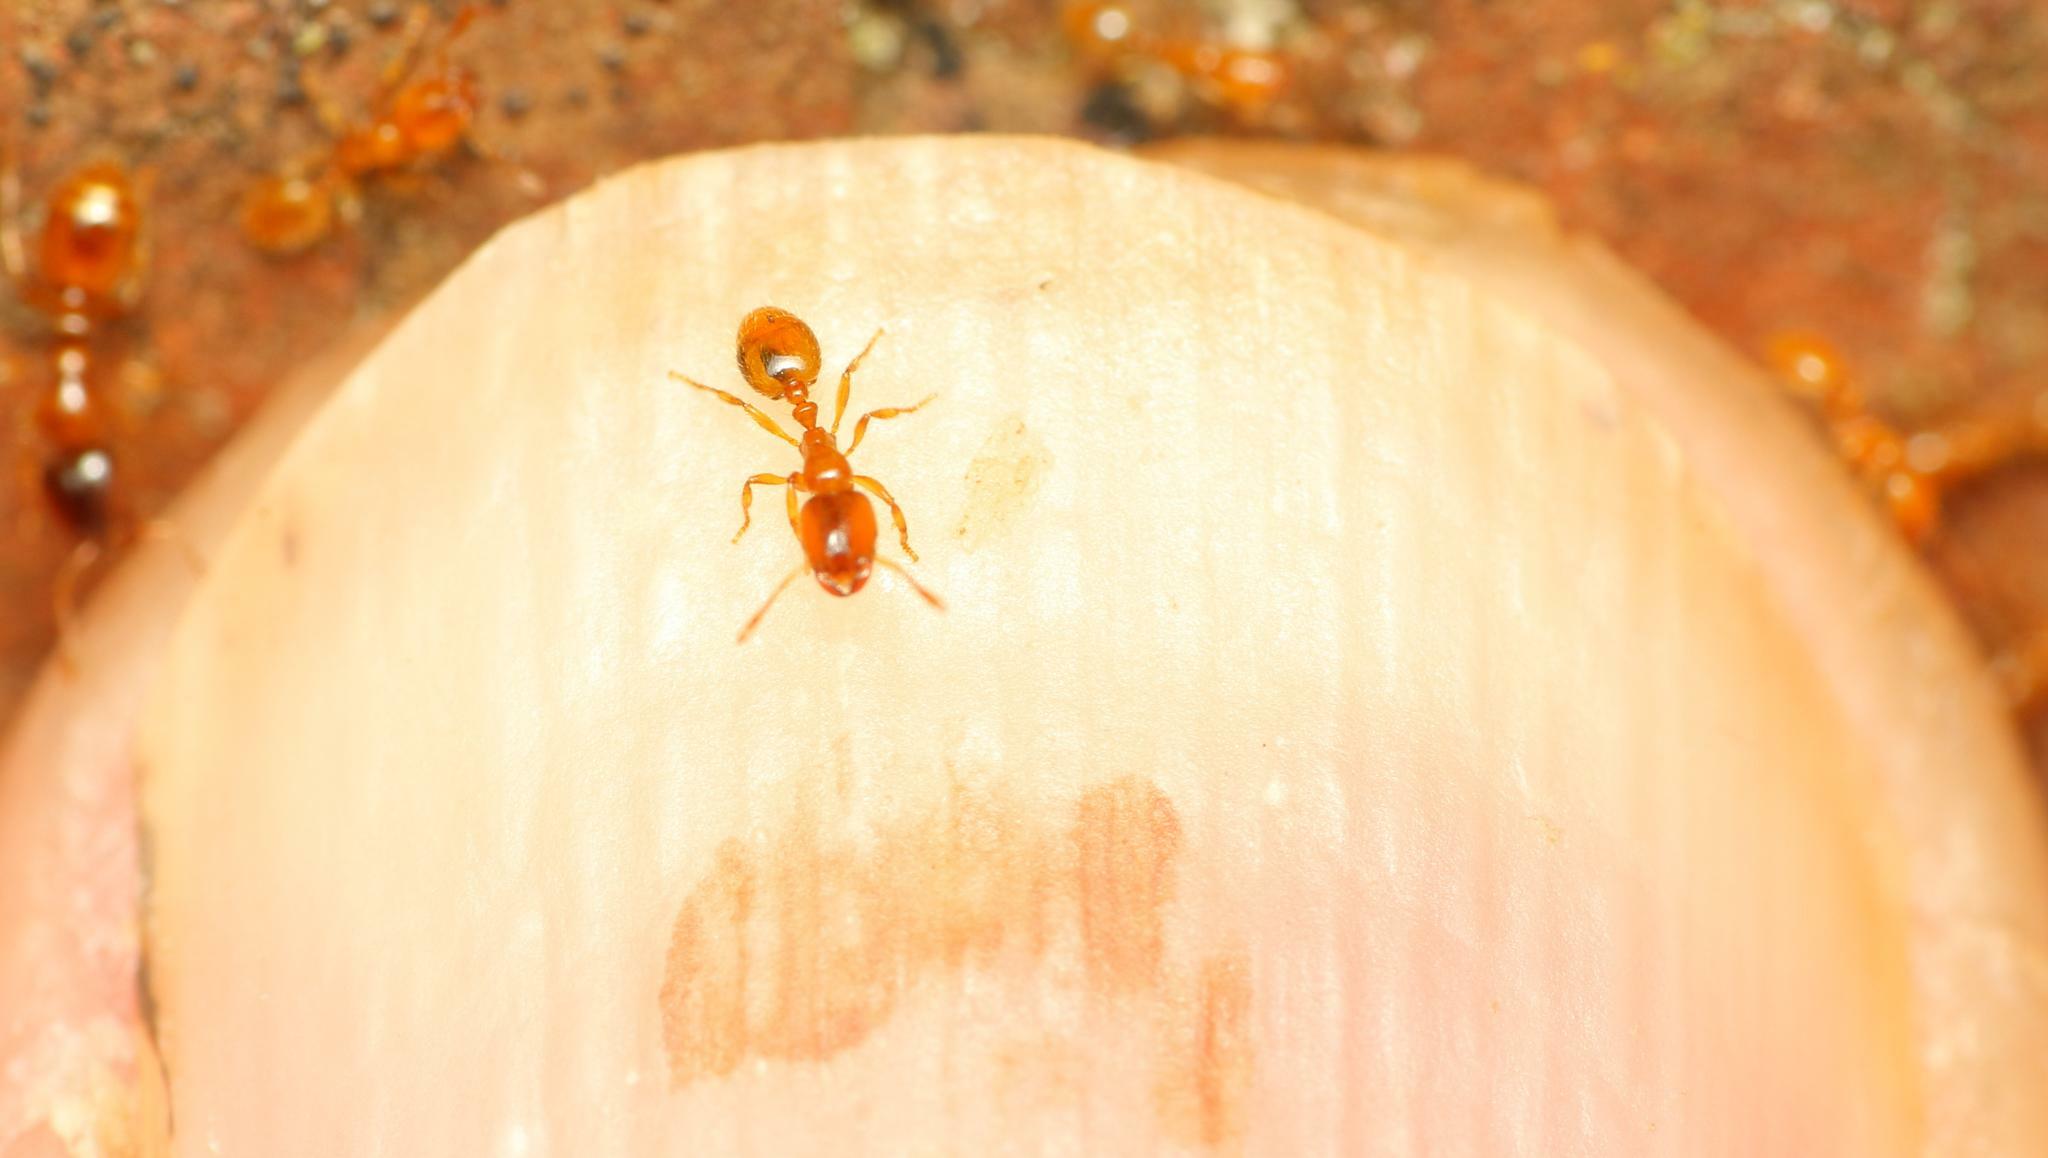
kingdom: Animalia
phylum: Arthropoda
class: Insecta
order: Hymenoptera
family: Formicidae
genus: Solenopsis
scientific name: Solenopsis punctaticeps
